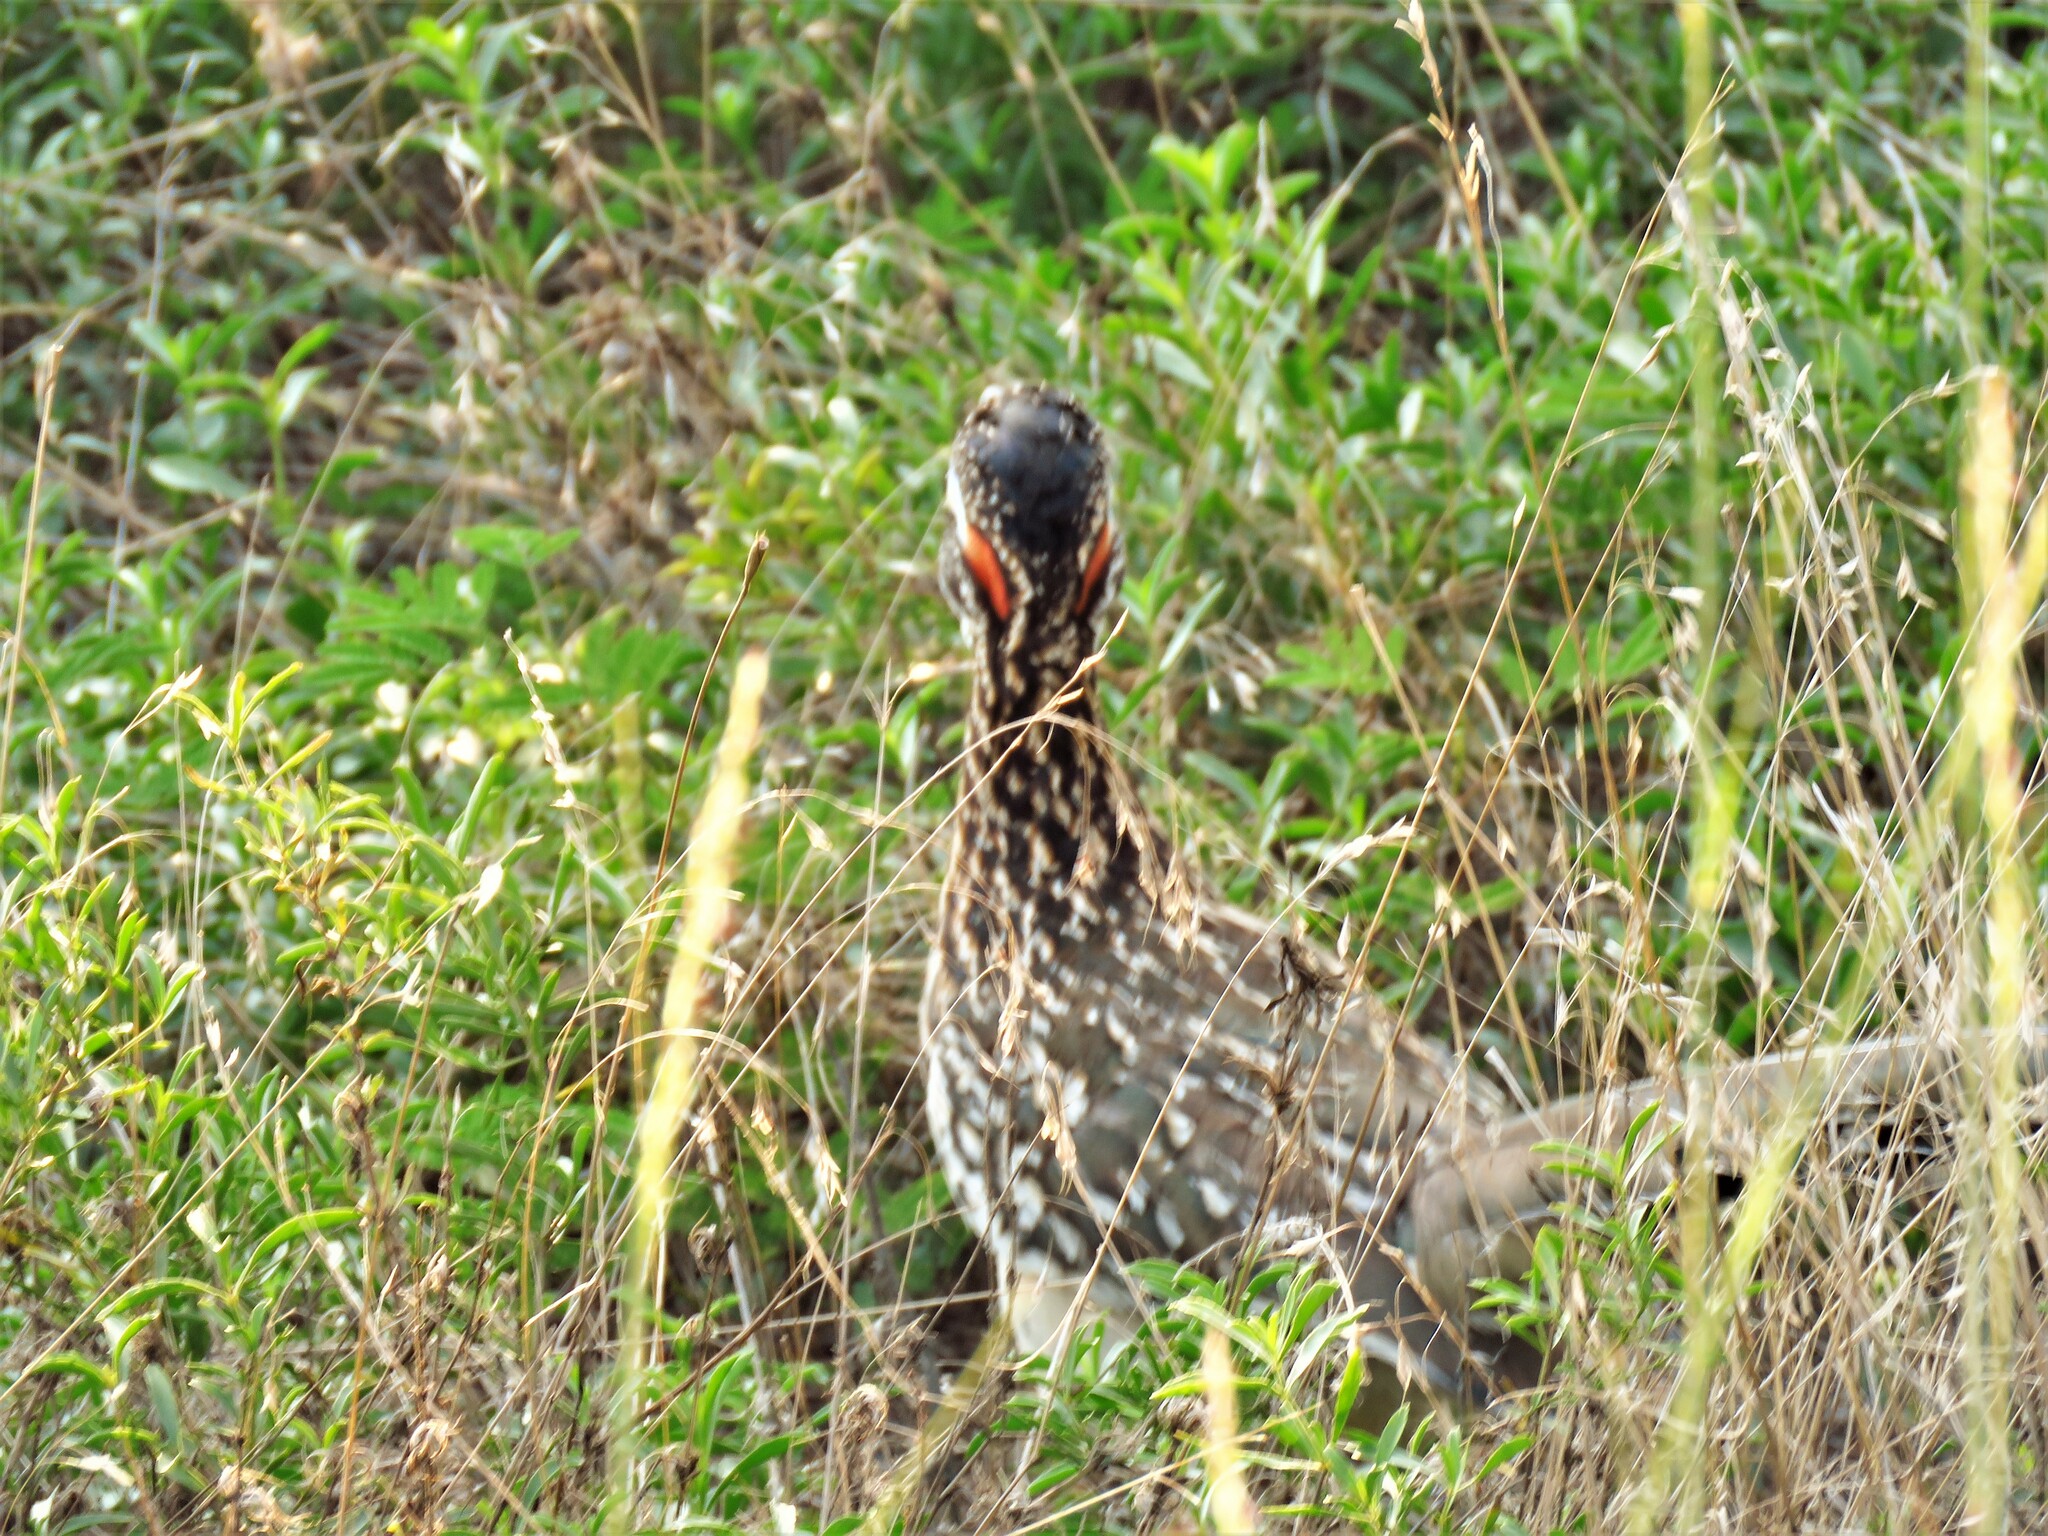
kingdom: Animalia
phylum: Chordata
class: Aves
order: Cuculiformes
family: Cuculidae
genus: Geococcyx
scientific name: Geococcyx californianus
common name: Greater roadrunner
